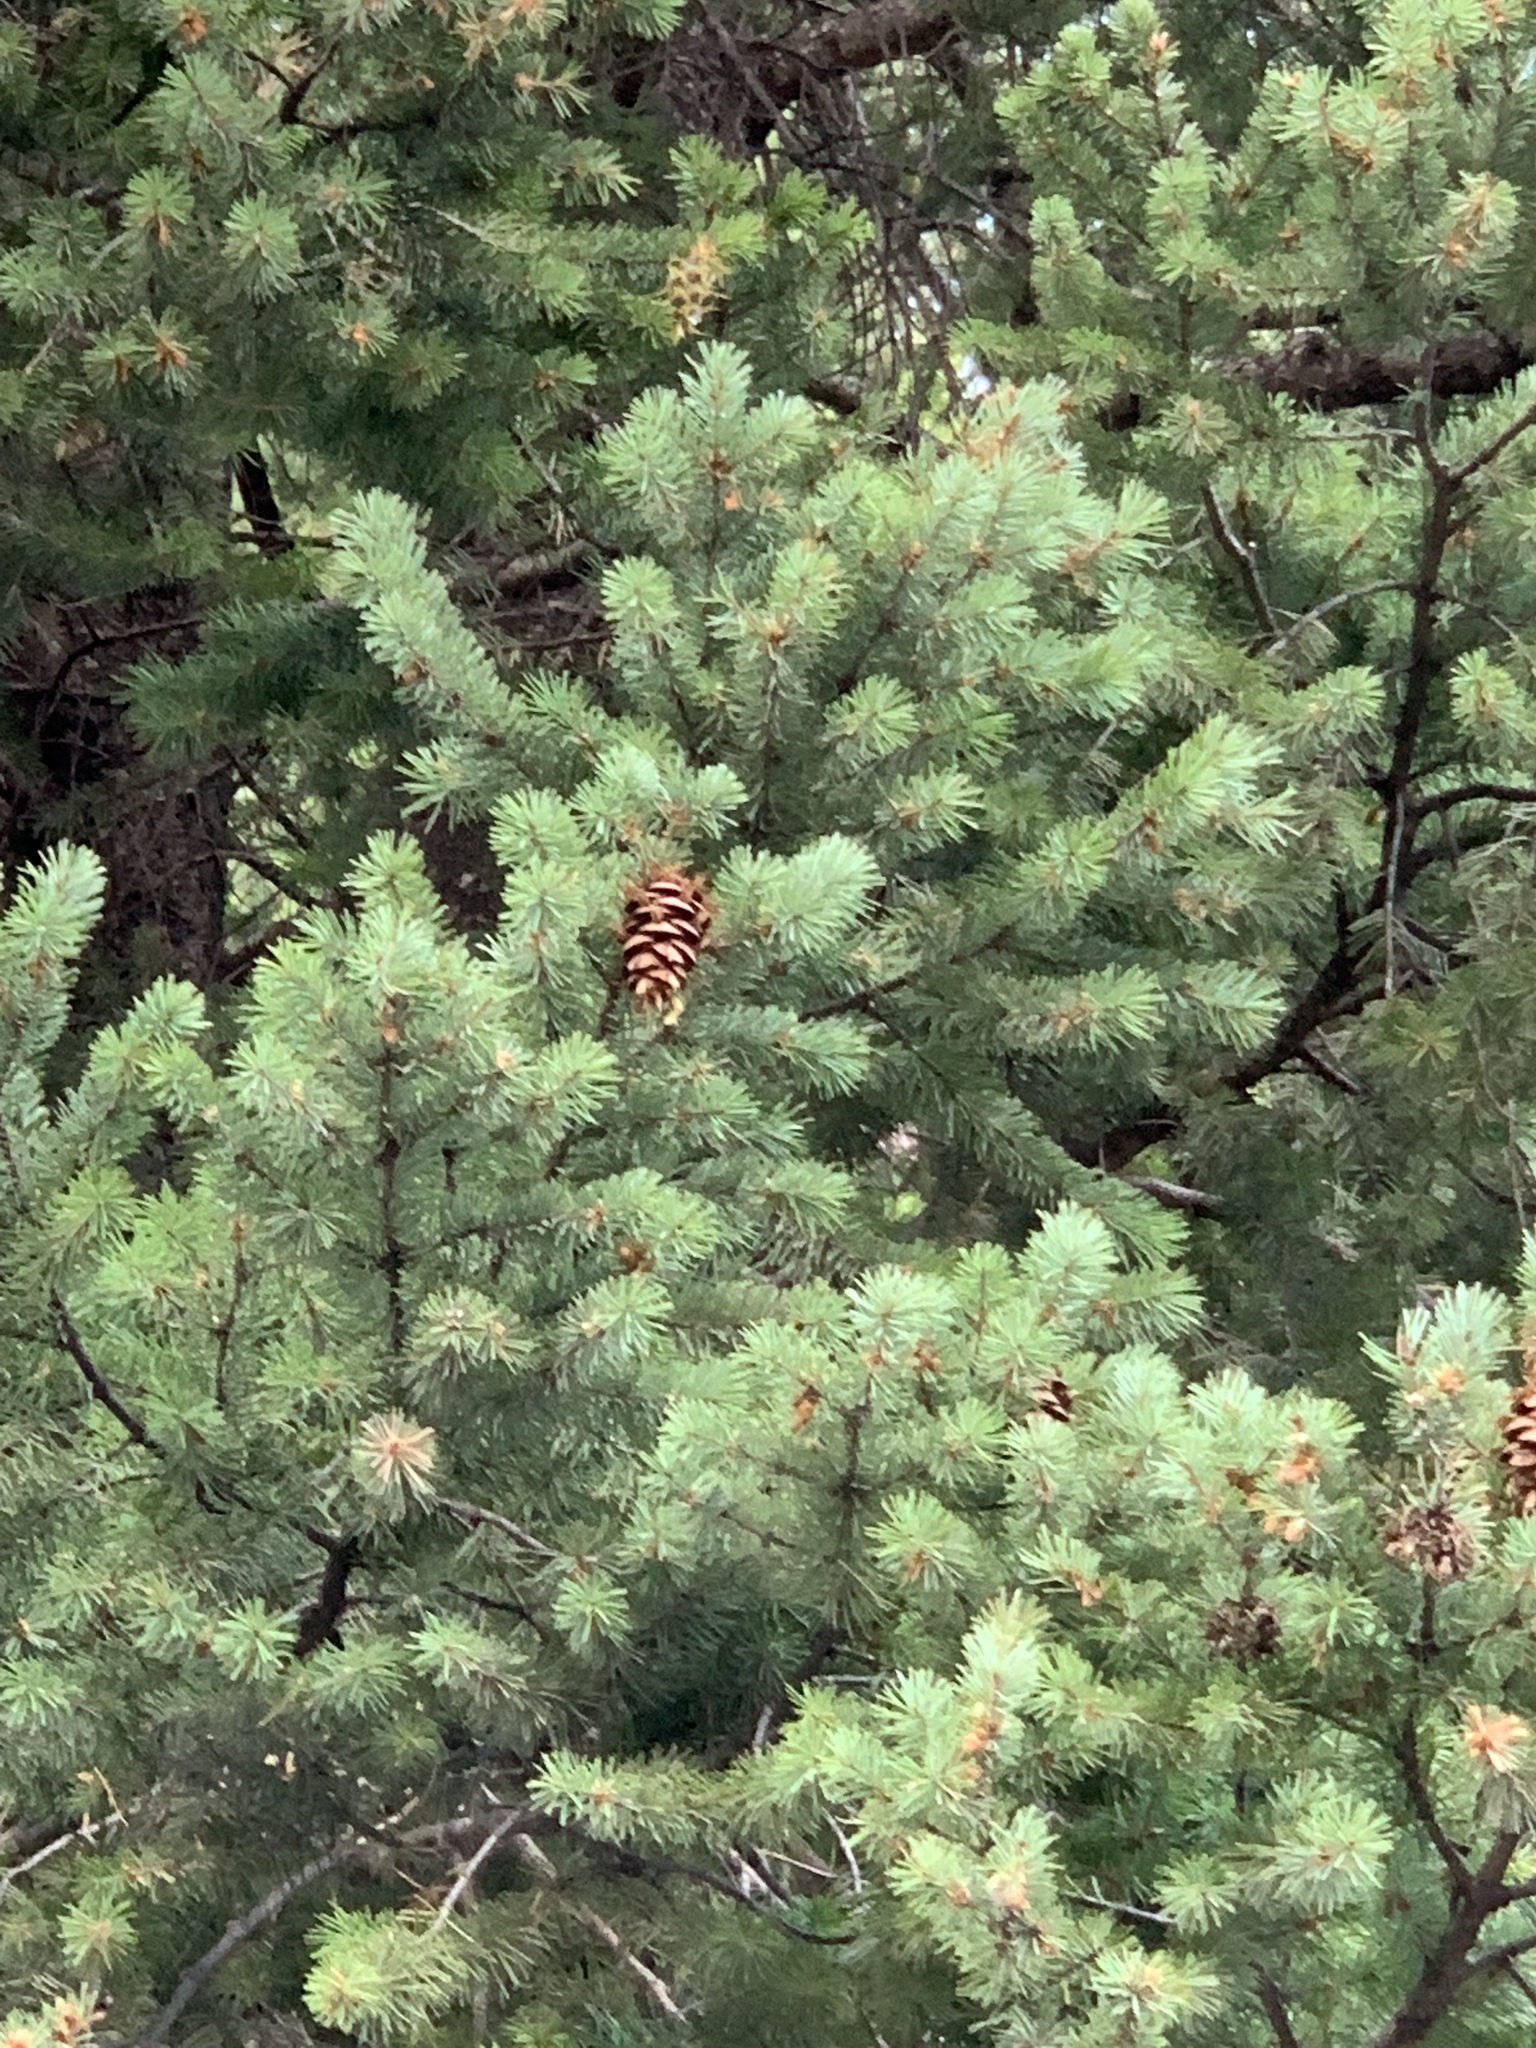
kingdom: Plantae
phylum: Tracheophyta
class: Pinopsida
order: Pinales
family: Pinaceae
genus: Pseudotsuga
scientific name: Pseudotsuga menziesii
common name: Douglas fir
